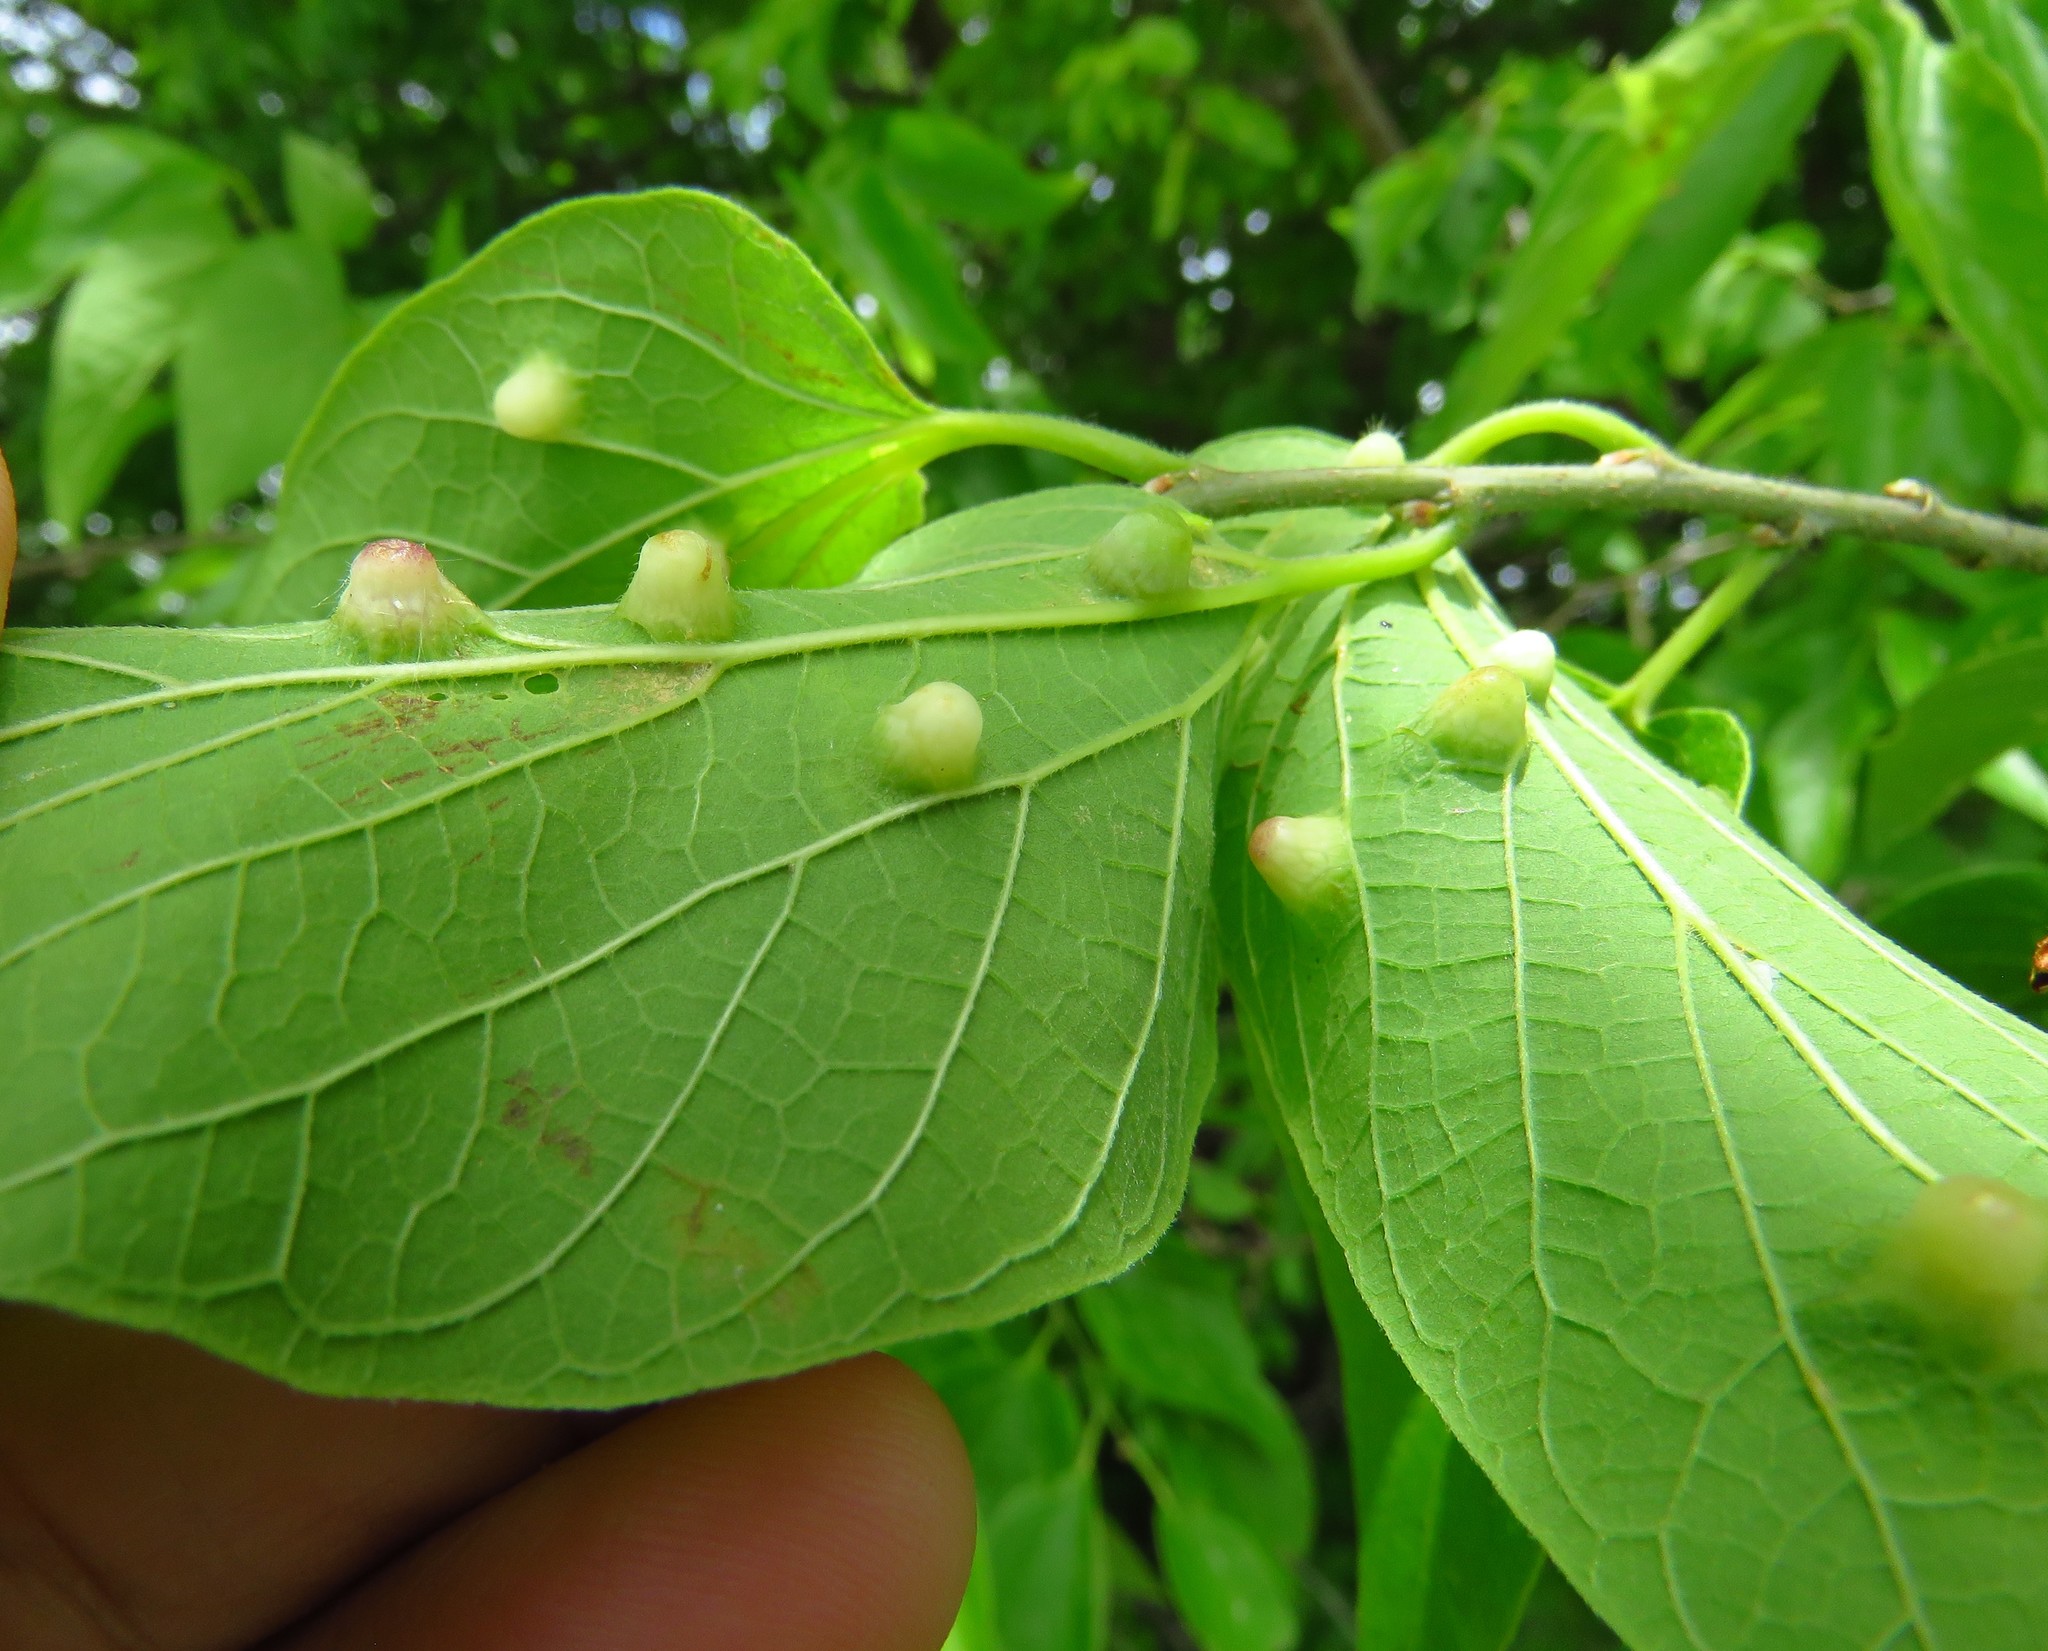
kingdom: Animalia
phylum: Arthropoda
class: Insecta
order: Hemiptera
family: Aphalaridae
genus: Pachypsylla
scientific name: Pachypsylla celtidismamma
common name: Hackberry nipplegall psyllid
